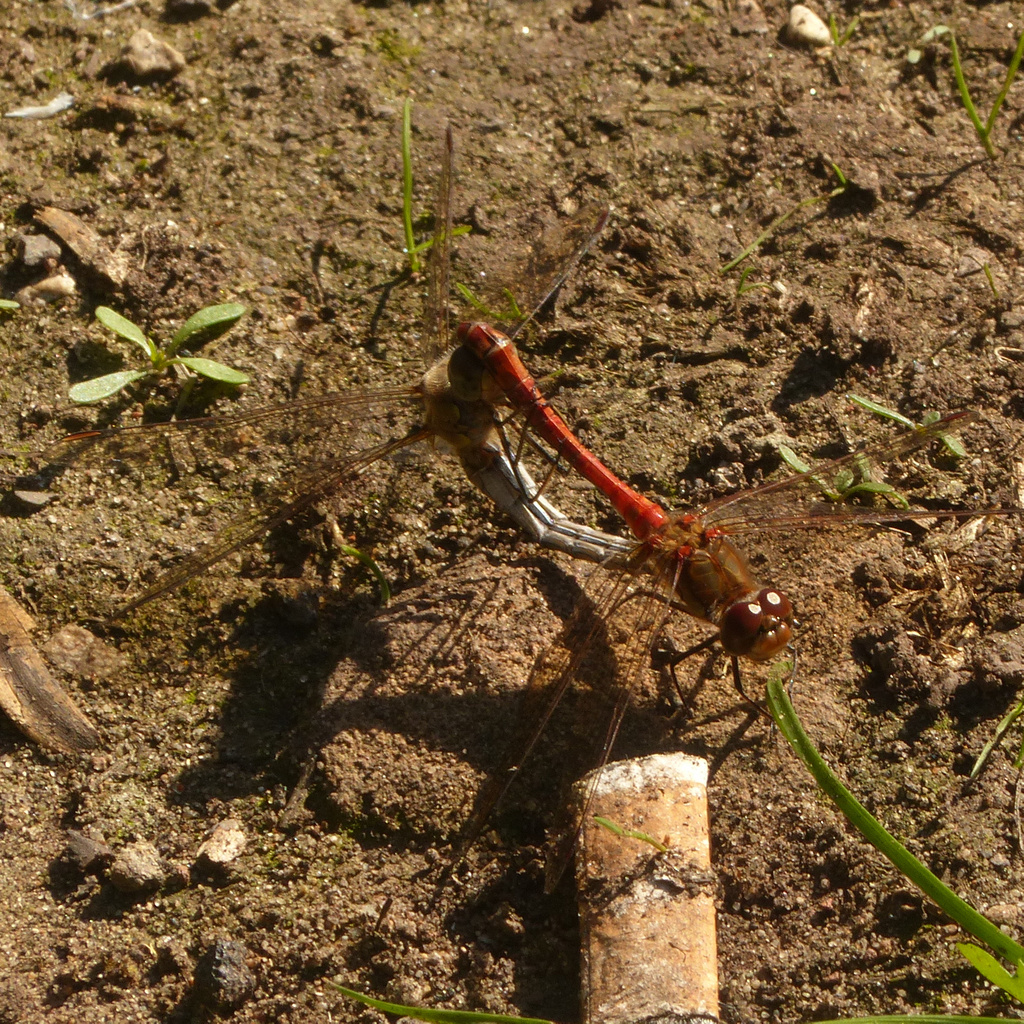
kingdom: Animalia
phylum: Arthropoda
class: Insecta
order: Odonata
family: Libellulidae
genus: Sympetrum
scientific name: Sympetrum striolatum
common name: Common darter
